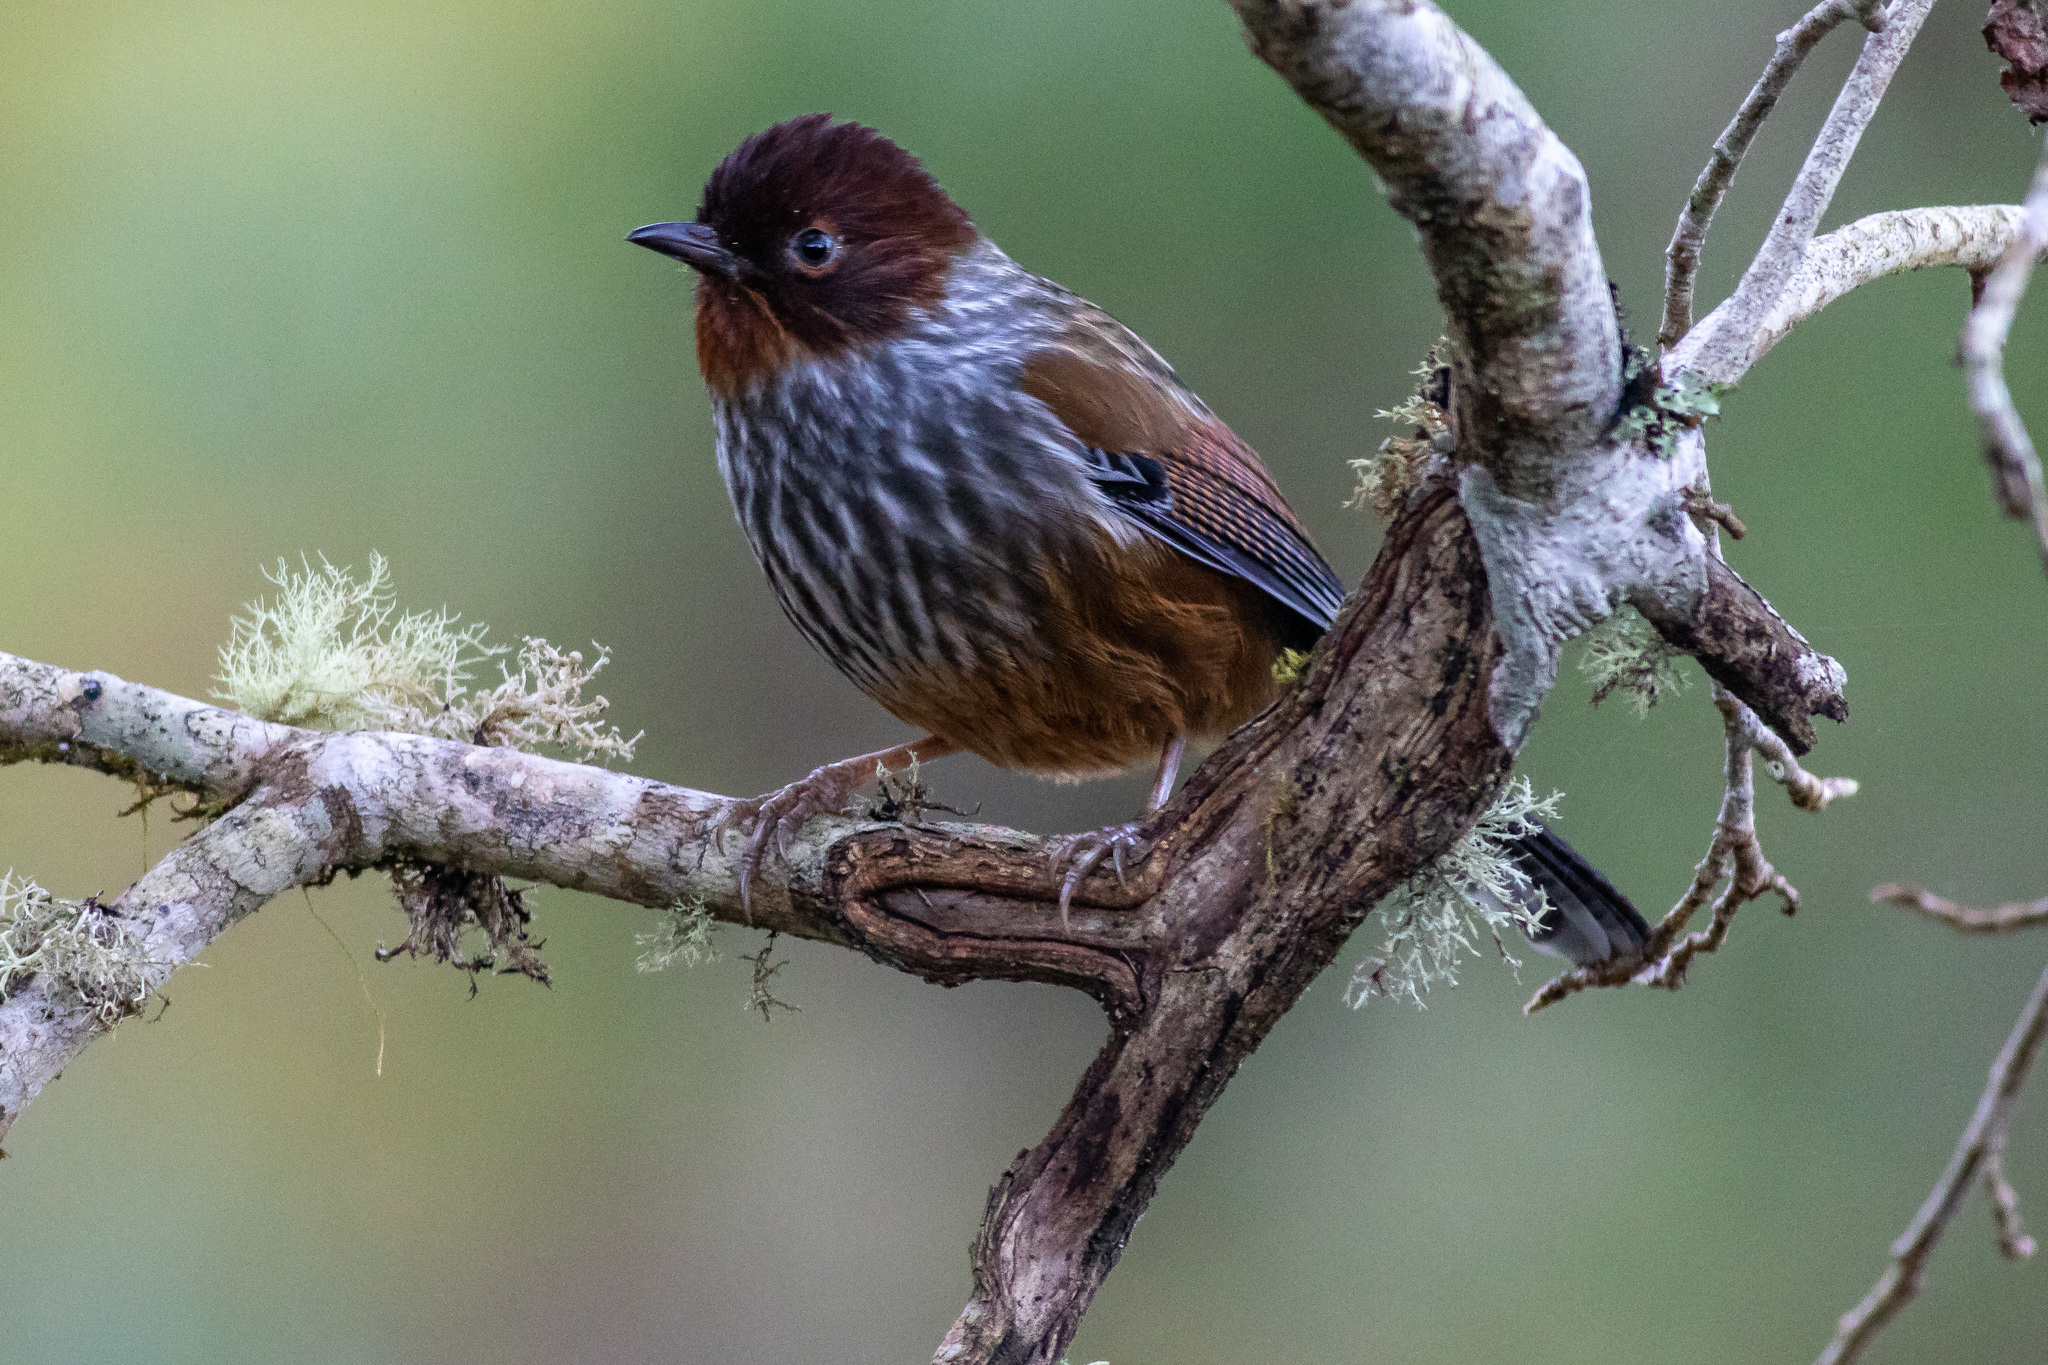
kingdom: Animalia
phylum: Chordata
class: Aves
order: Passeriformes
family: Leiothrichidae
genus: Actinodura
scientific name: Actinodura morrisoniana
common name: Taiwan barwing
